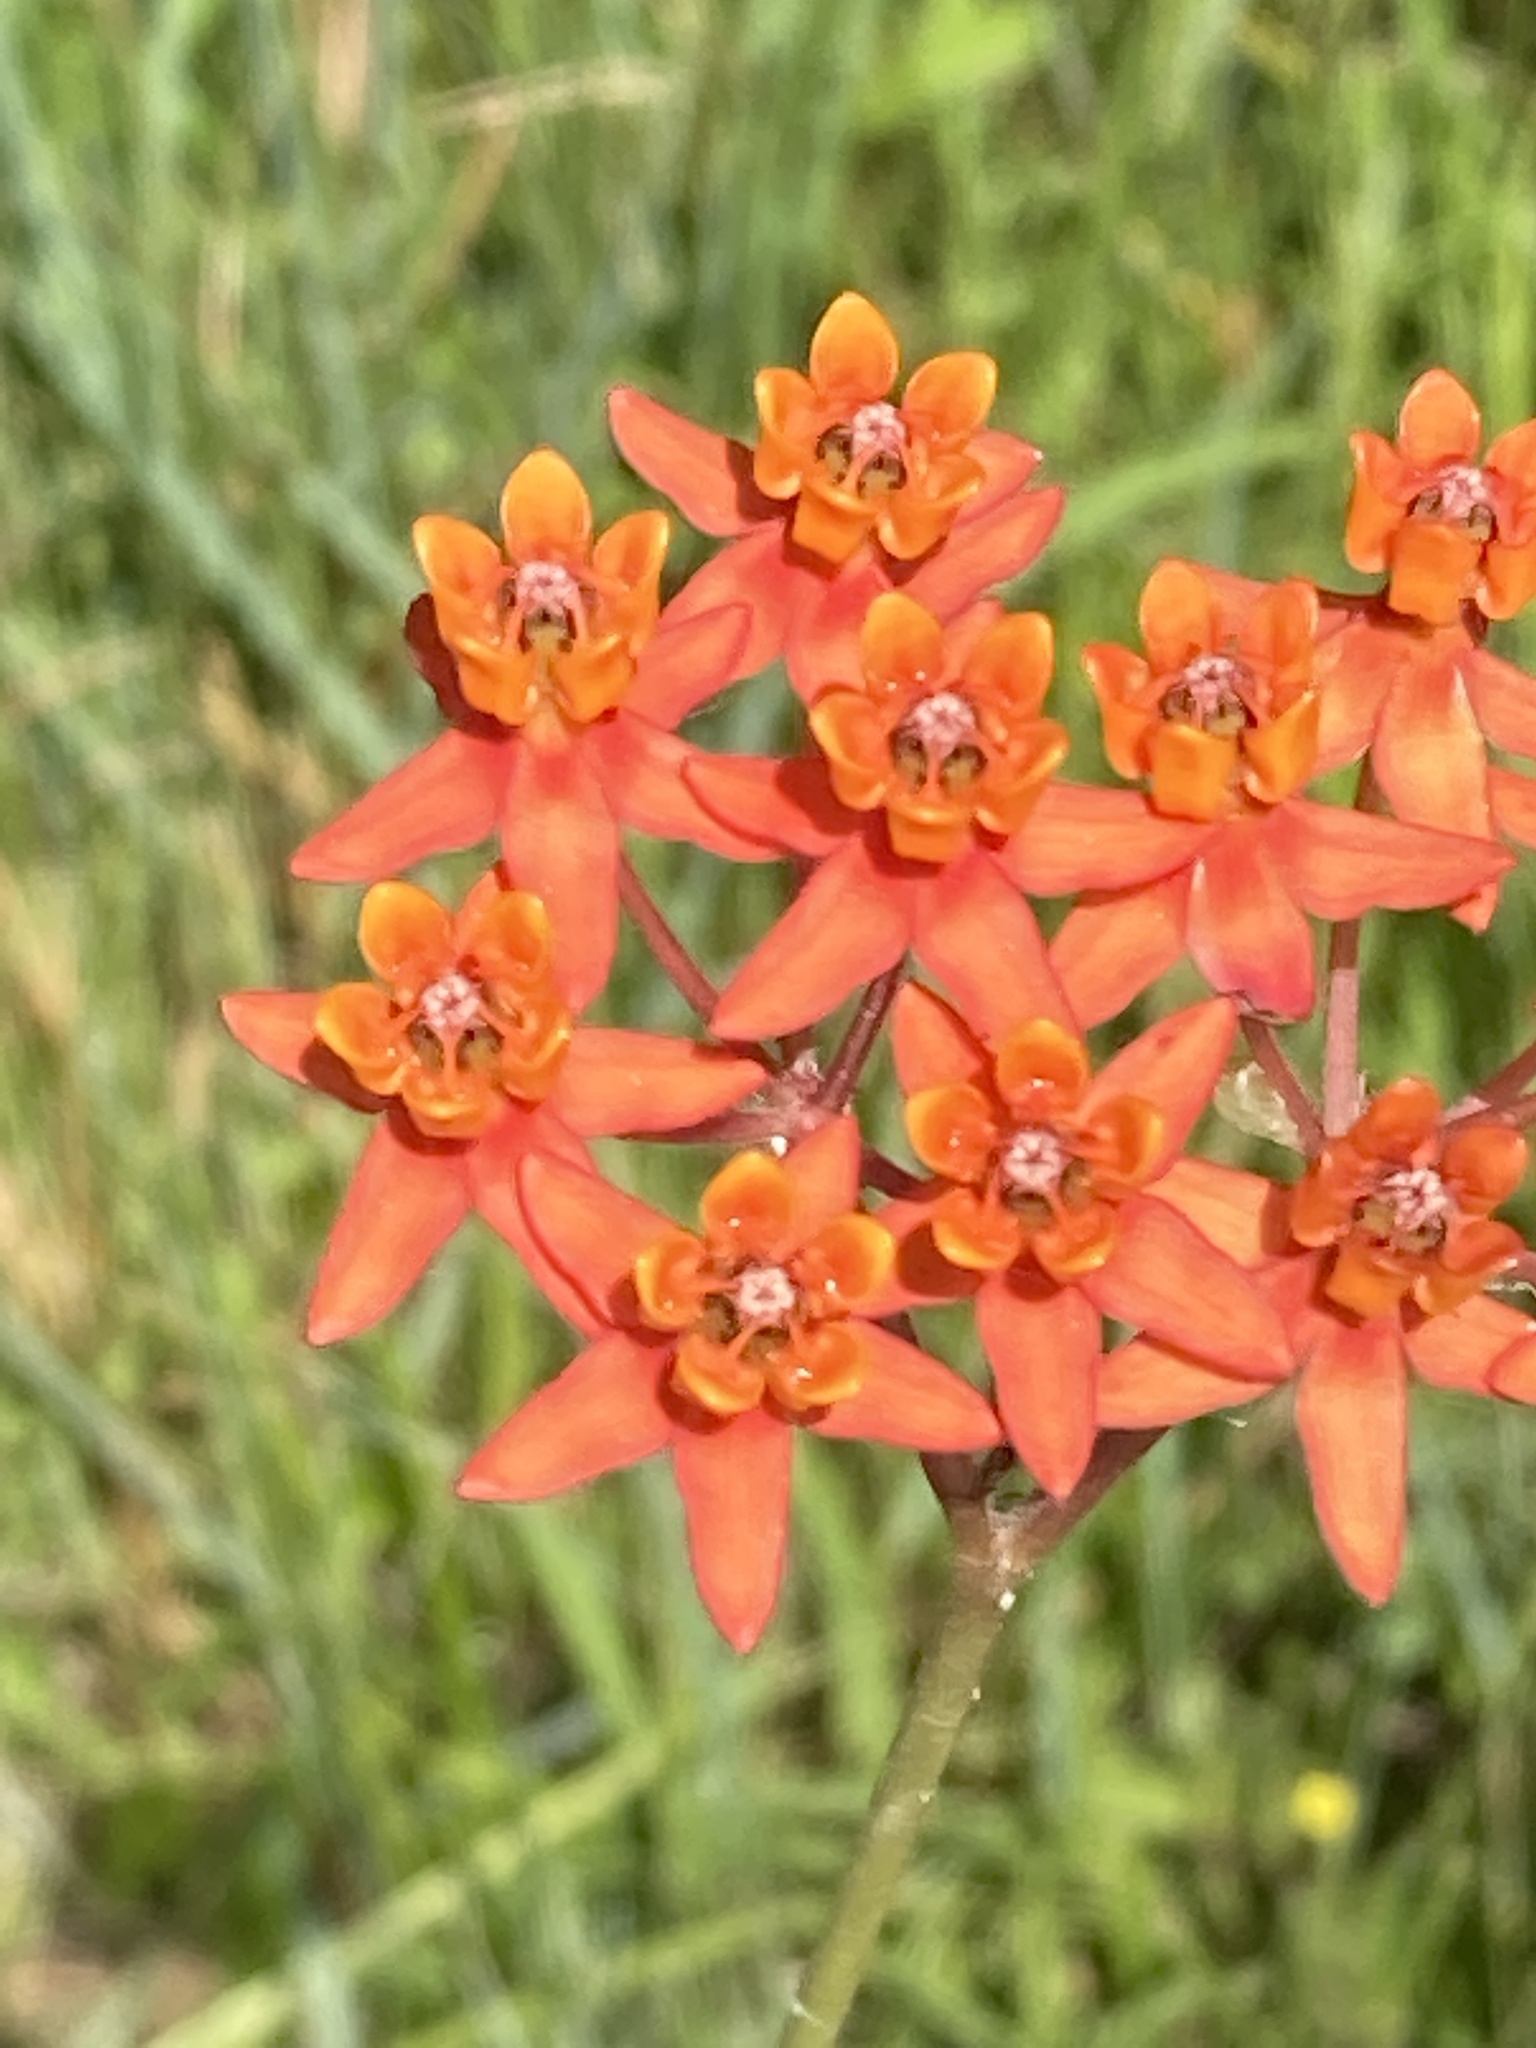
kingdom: Plantae
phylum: Tracheophyta
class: Magnoliopsida
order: Gentianales
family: Apocynaceae
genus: Asclepias
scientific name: Asclepias lanceolata
